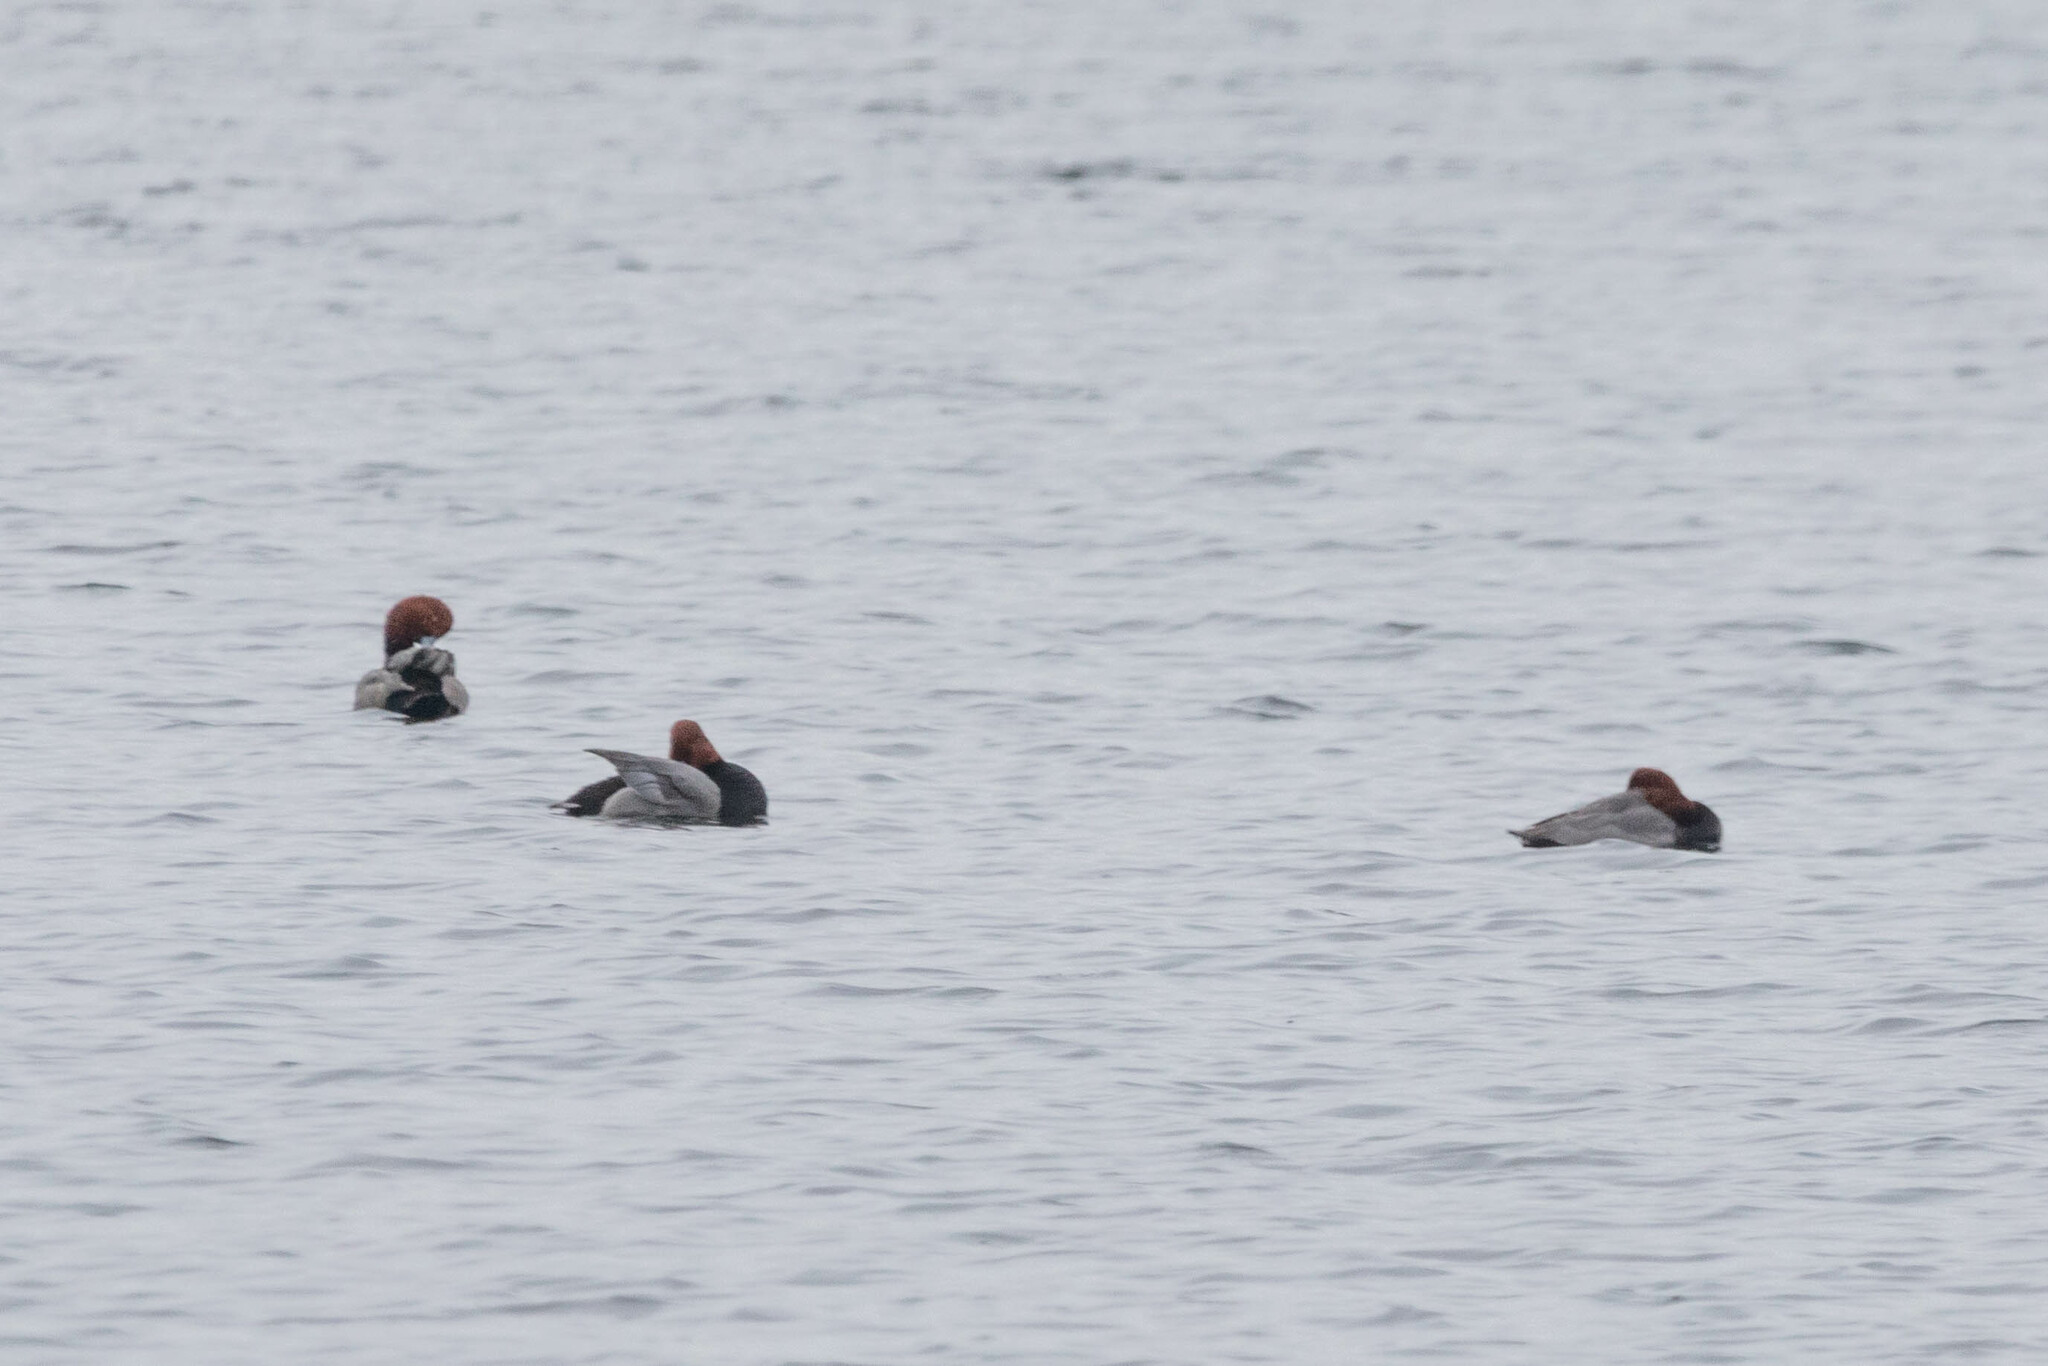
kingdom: Animalia
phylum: Chordata
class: Aves
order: Anseriformes
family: Anatidae
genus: Aythya
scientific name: Aythya americana
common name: Redhead
